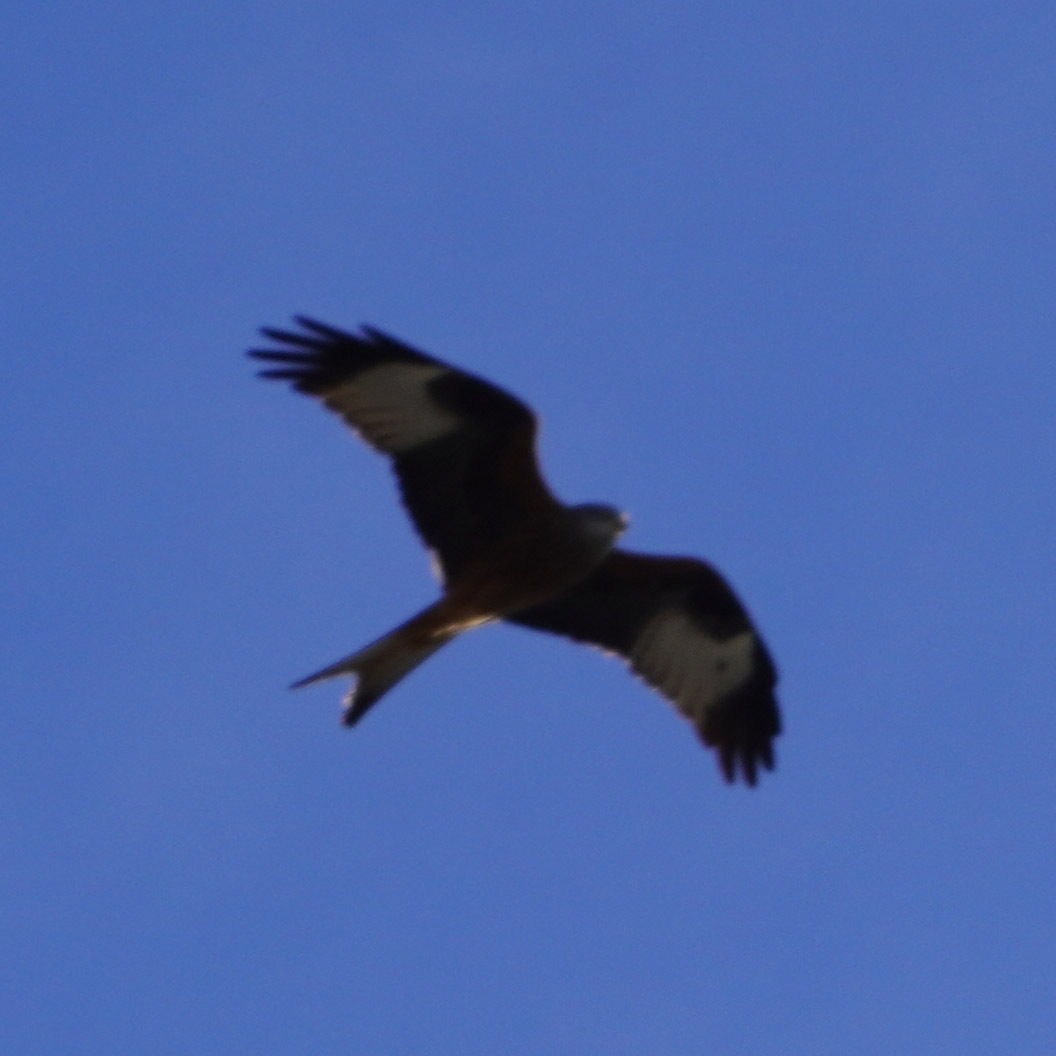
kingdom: Animalia
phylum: Chordata
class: Aves
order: Accipitriformes
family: Accipitridae
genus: Milvus
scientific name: Milvus milvus
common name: Red kite
